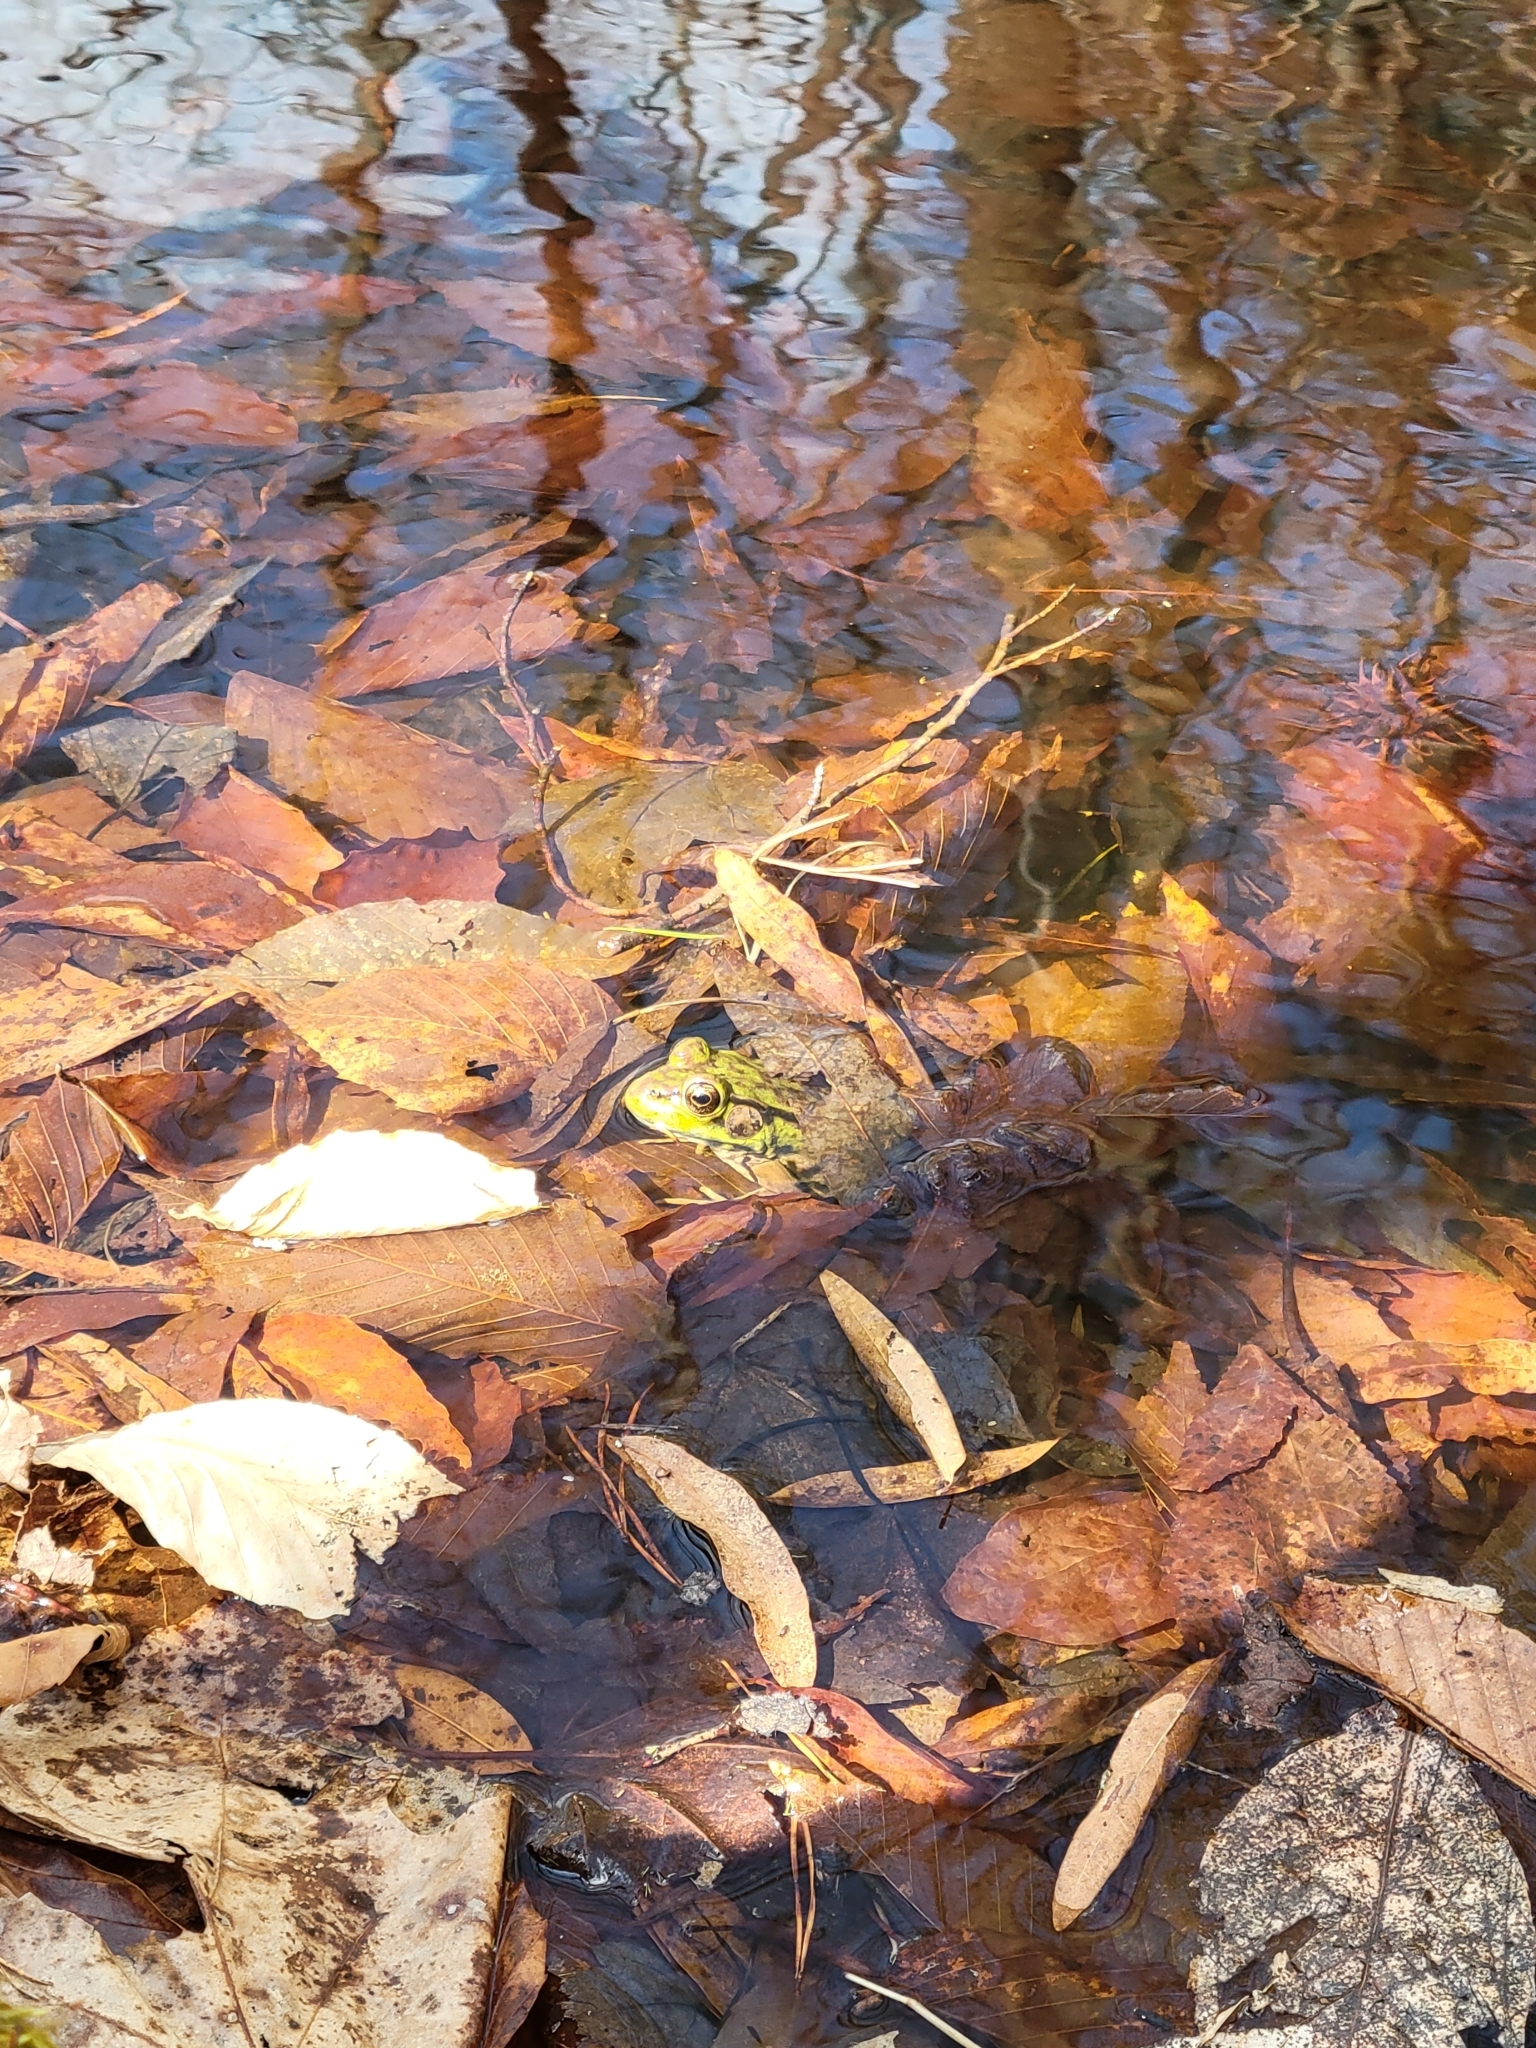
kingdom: Animalia
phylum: Chordata
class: Amphibia
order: Anura
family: Ranidae
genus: Lithobates
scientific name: Lithobates clamitans
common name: Green frog
